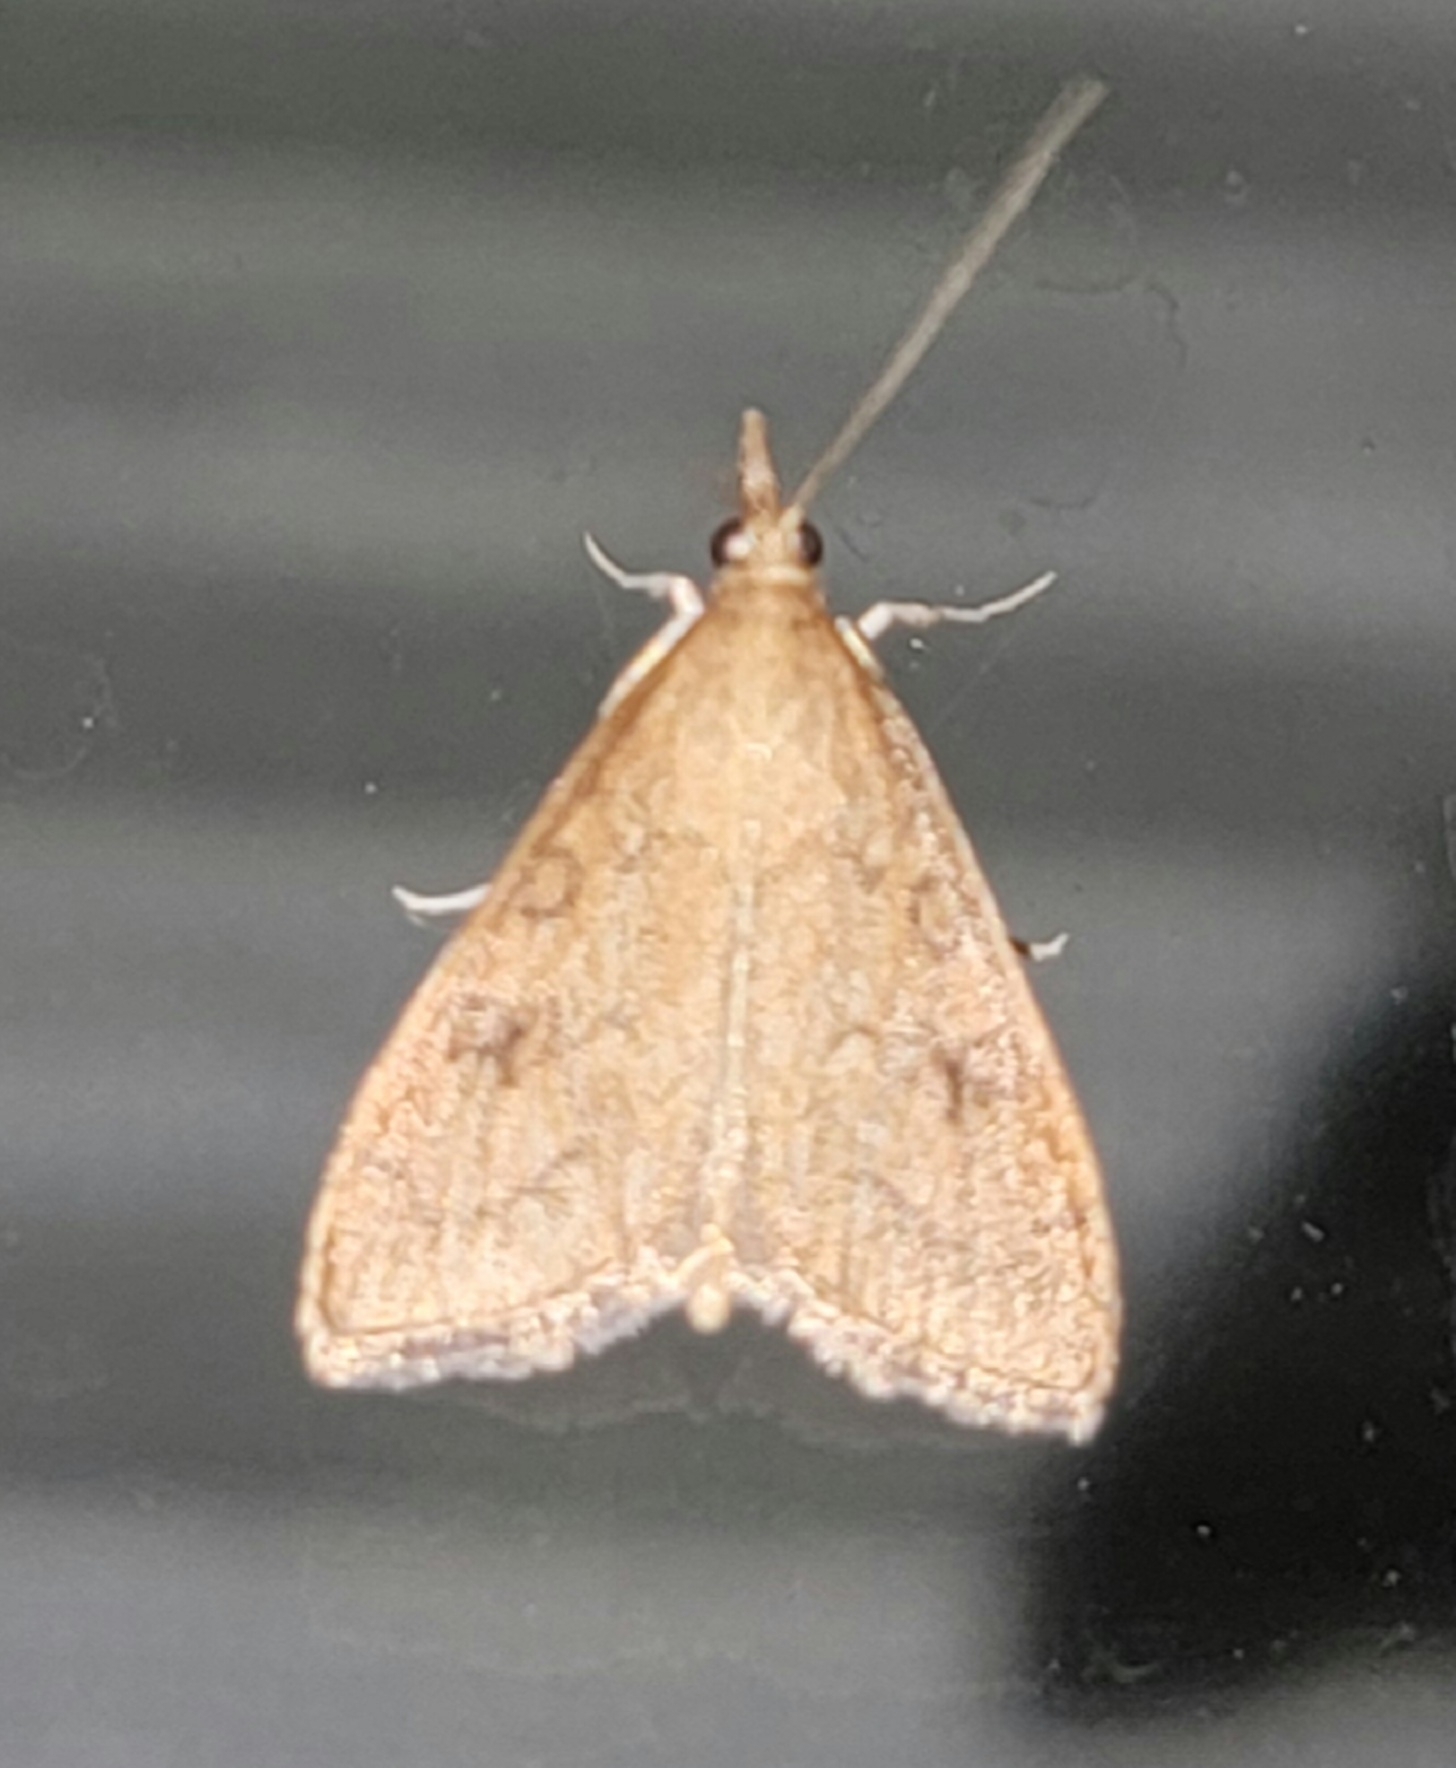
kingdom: Animalia
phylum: Arthropoda
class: Insecta
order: Lepidoptera
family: Crambidae
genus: Udea
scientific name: Udea rubigalis
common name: Celery leaftier moth
